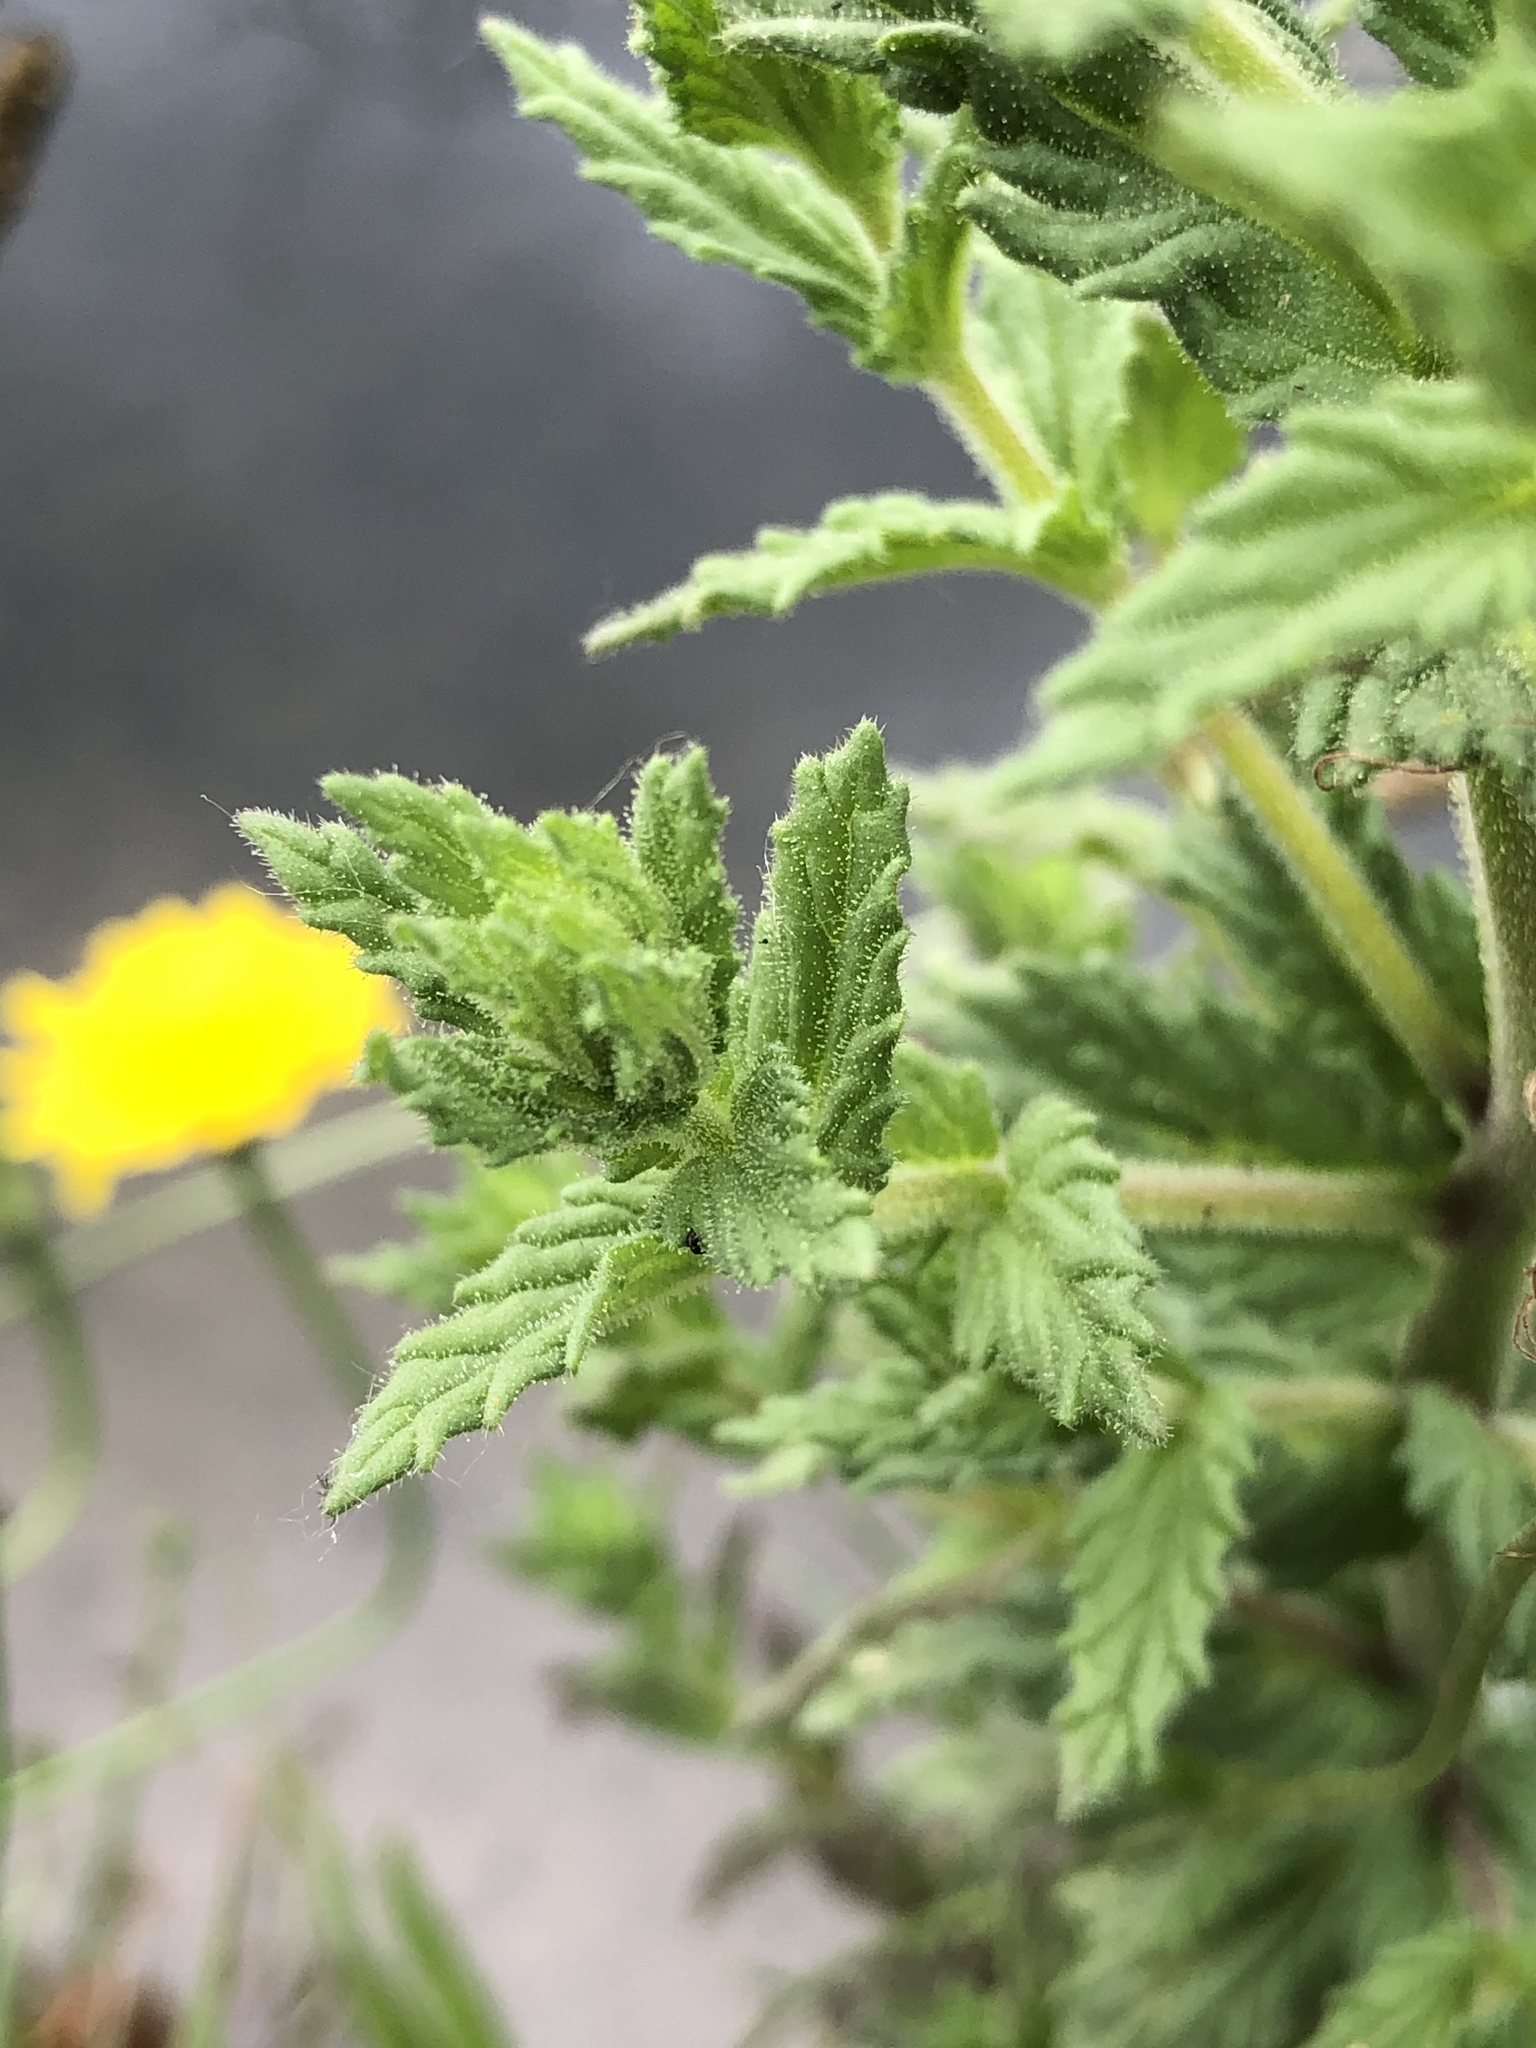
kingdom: Plantae
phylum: Tracheophyta
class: Magnoliopsida
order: Lamiales
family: Orobanchaceae
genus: Bellardia
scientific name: Bellardia viscosa
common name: Sticky parentucellia
